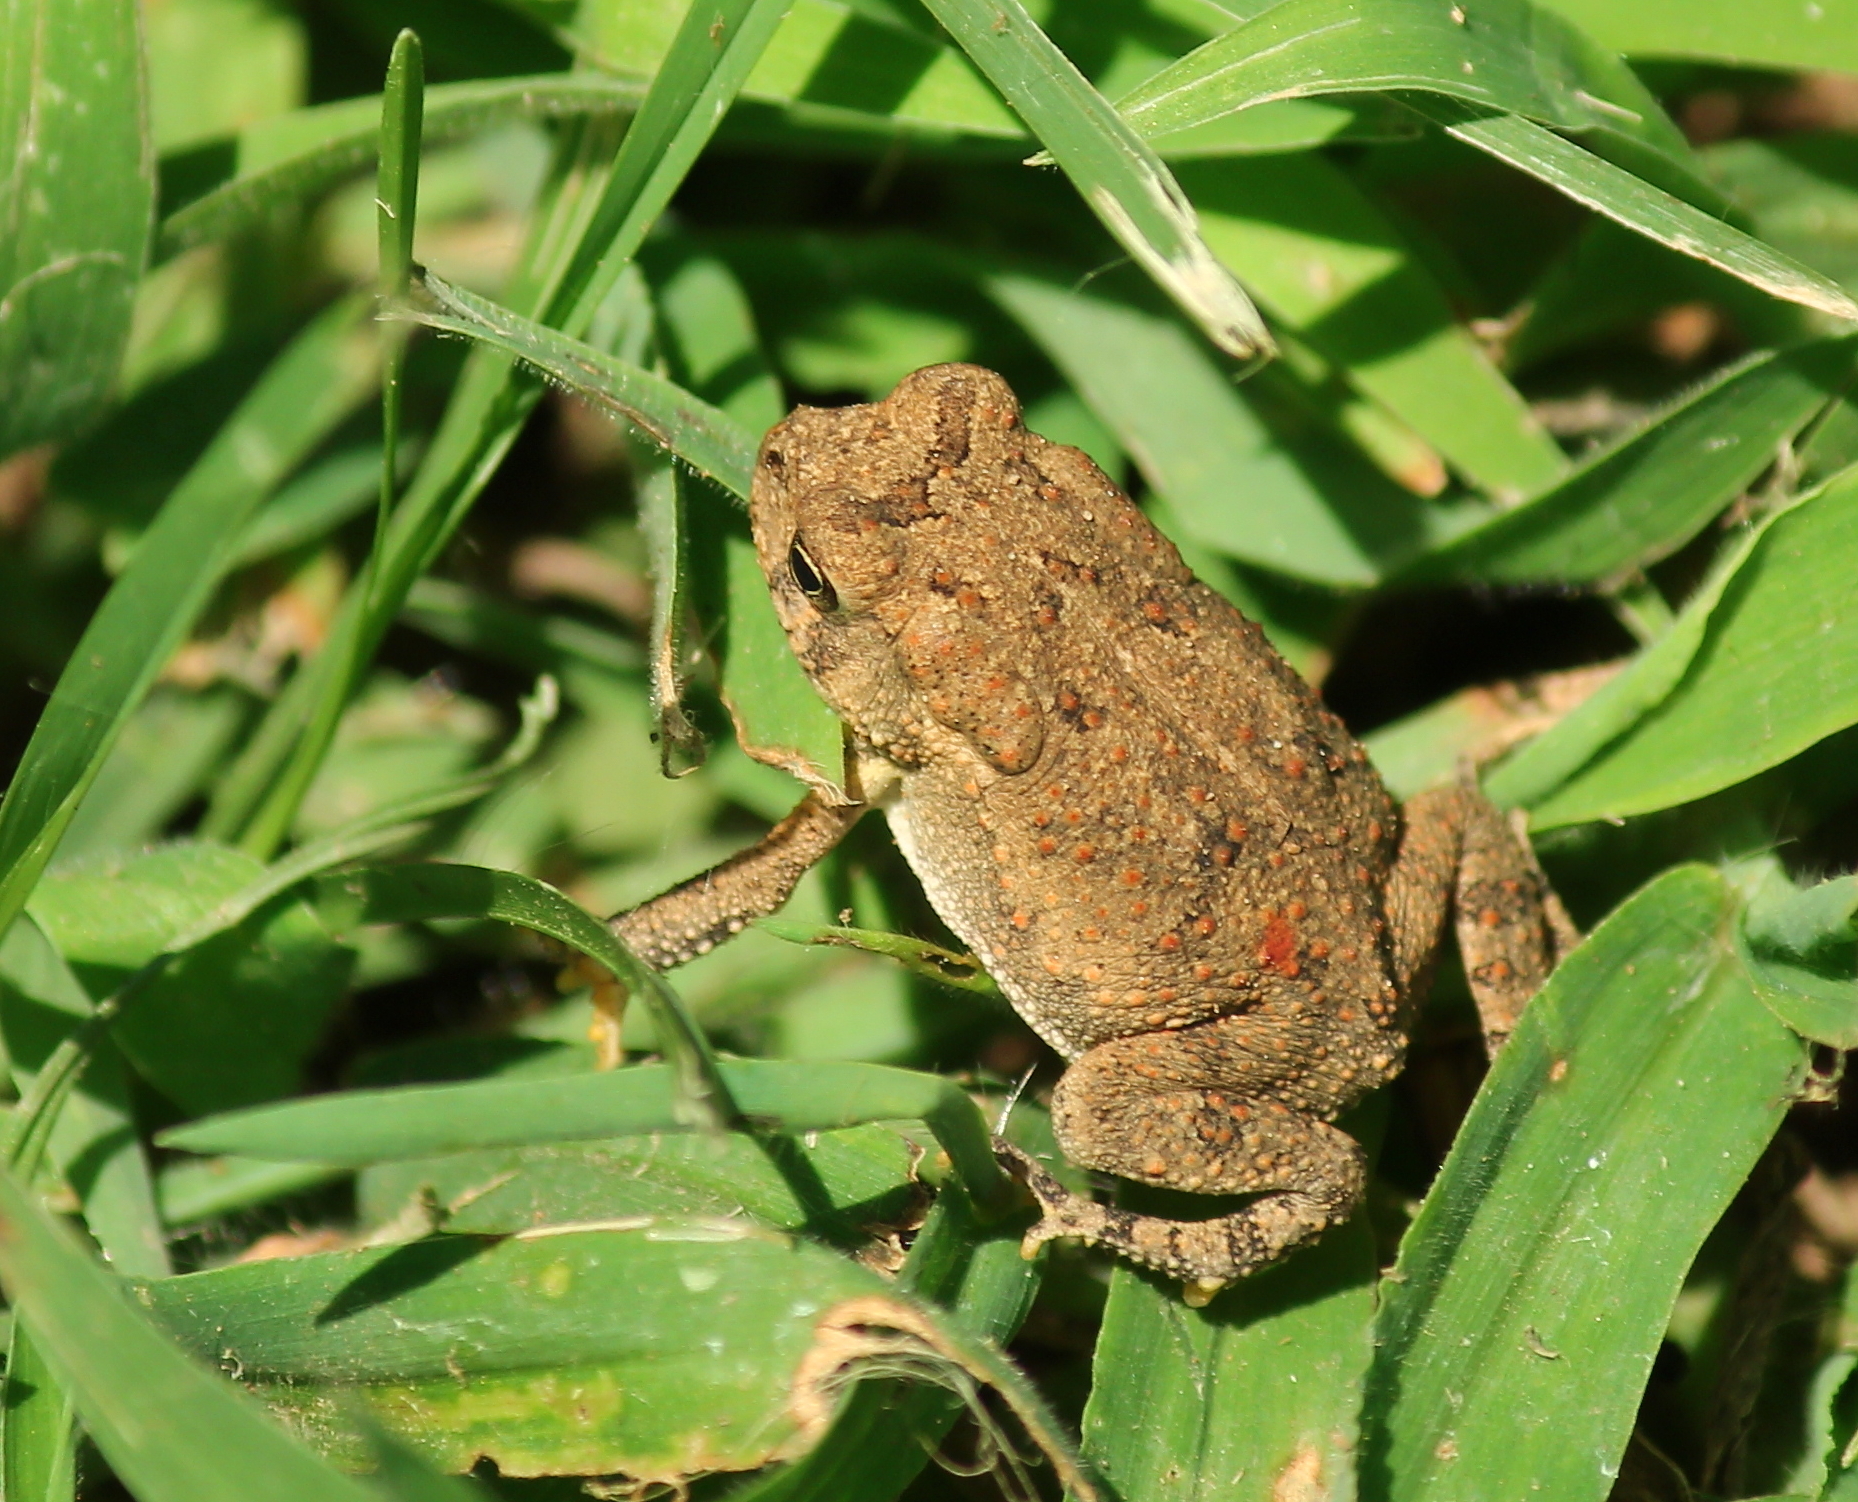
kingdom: Animalia
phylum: Chordata
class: Amphibia
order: Anura
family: Bufonidae
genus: Anaxyrus
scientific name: Anaxyrus americanus
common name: American toad
